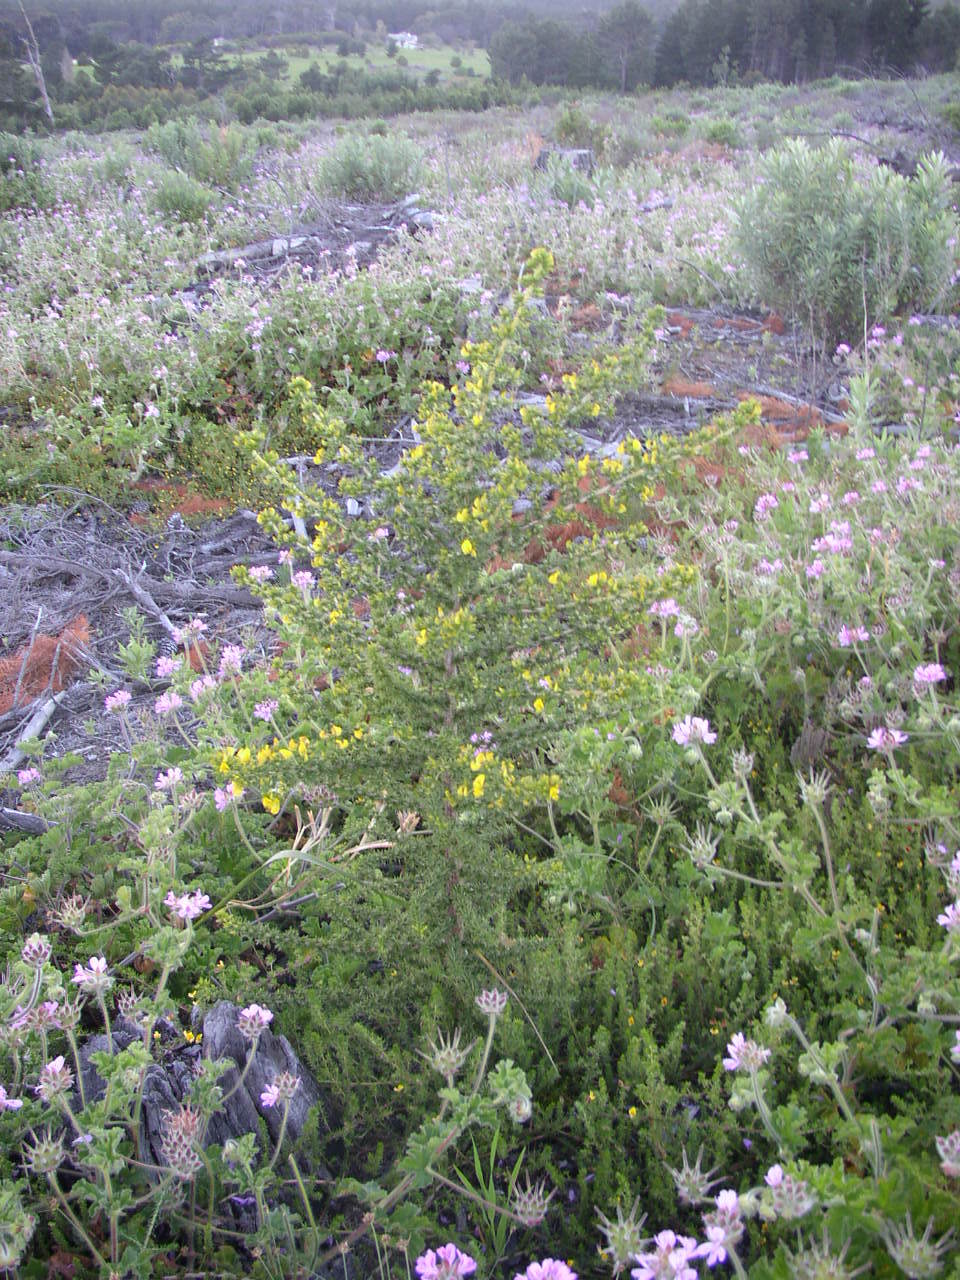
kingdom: Plantae
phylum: Tracheophyta
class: Magnoliopsida
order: Fabales
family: Fabaceae
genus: Aspalathus
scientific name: Aspalathus astroites
